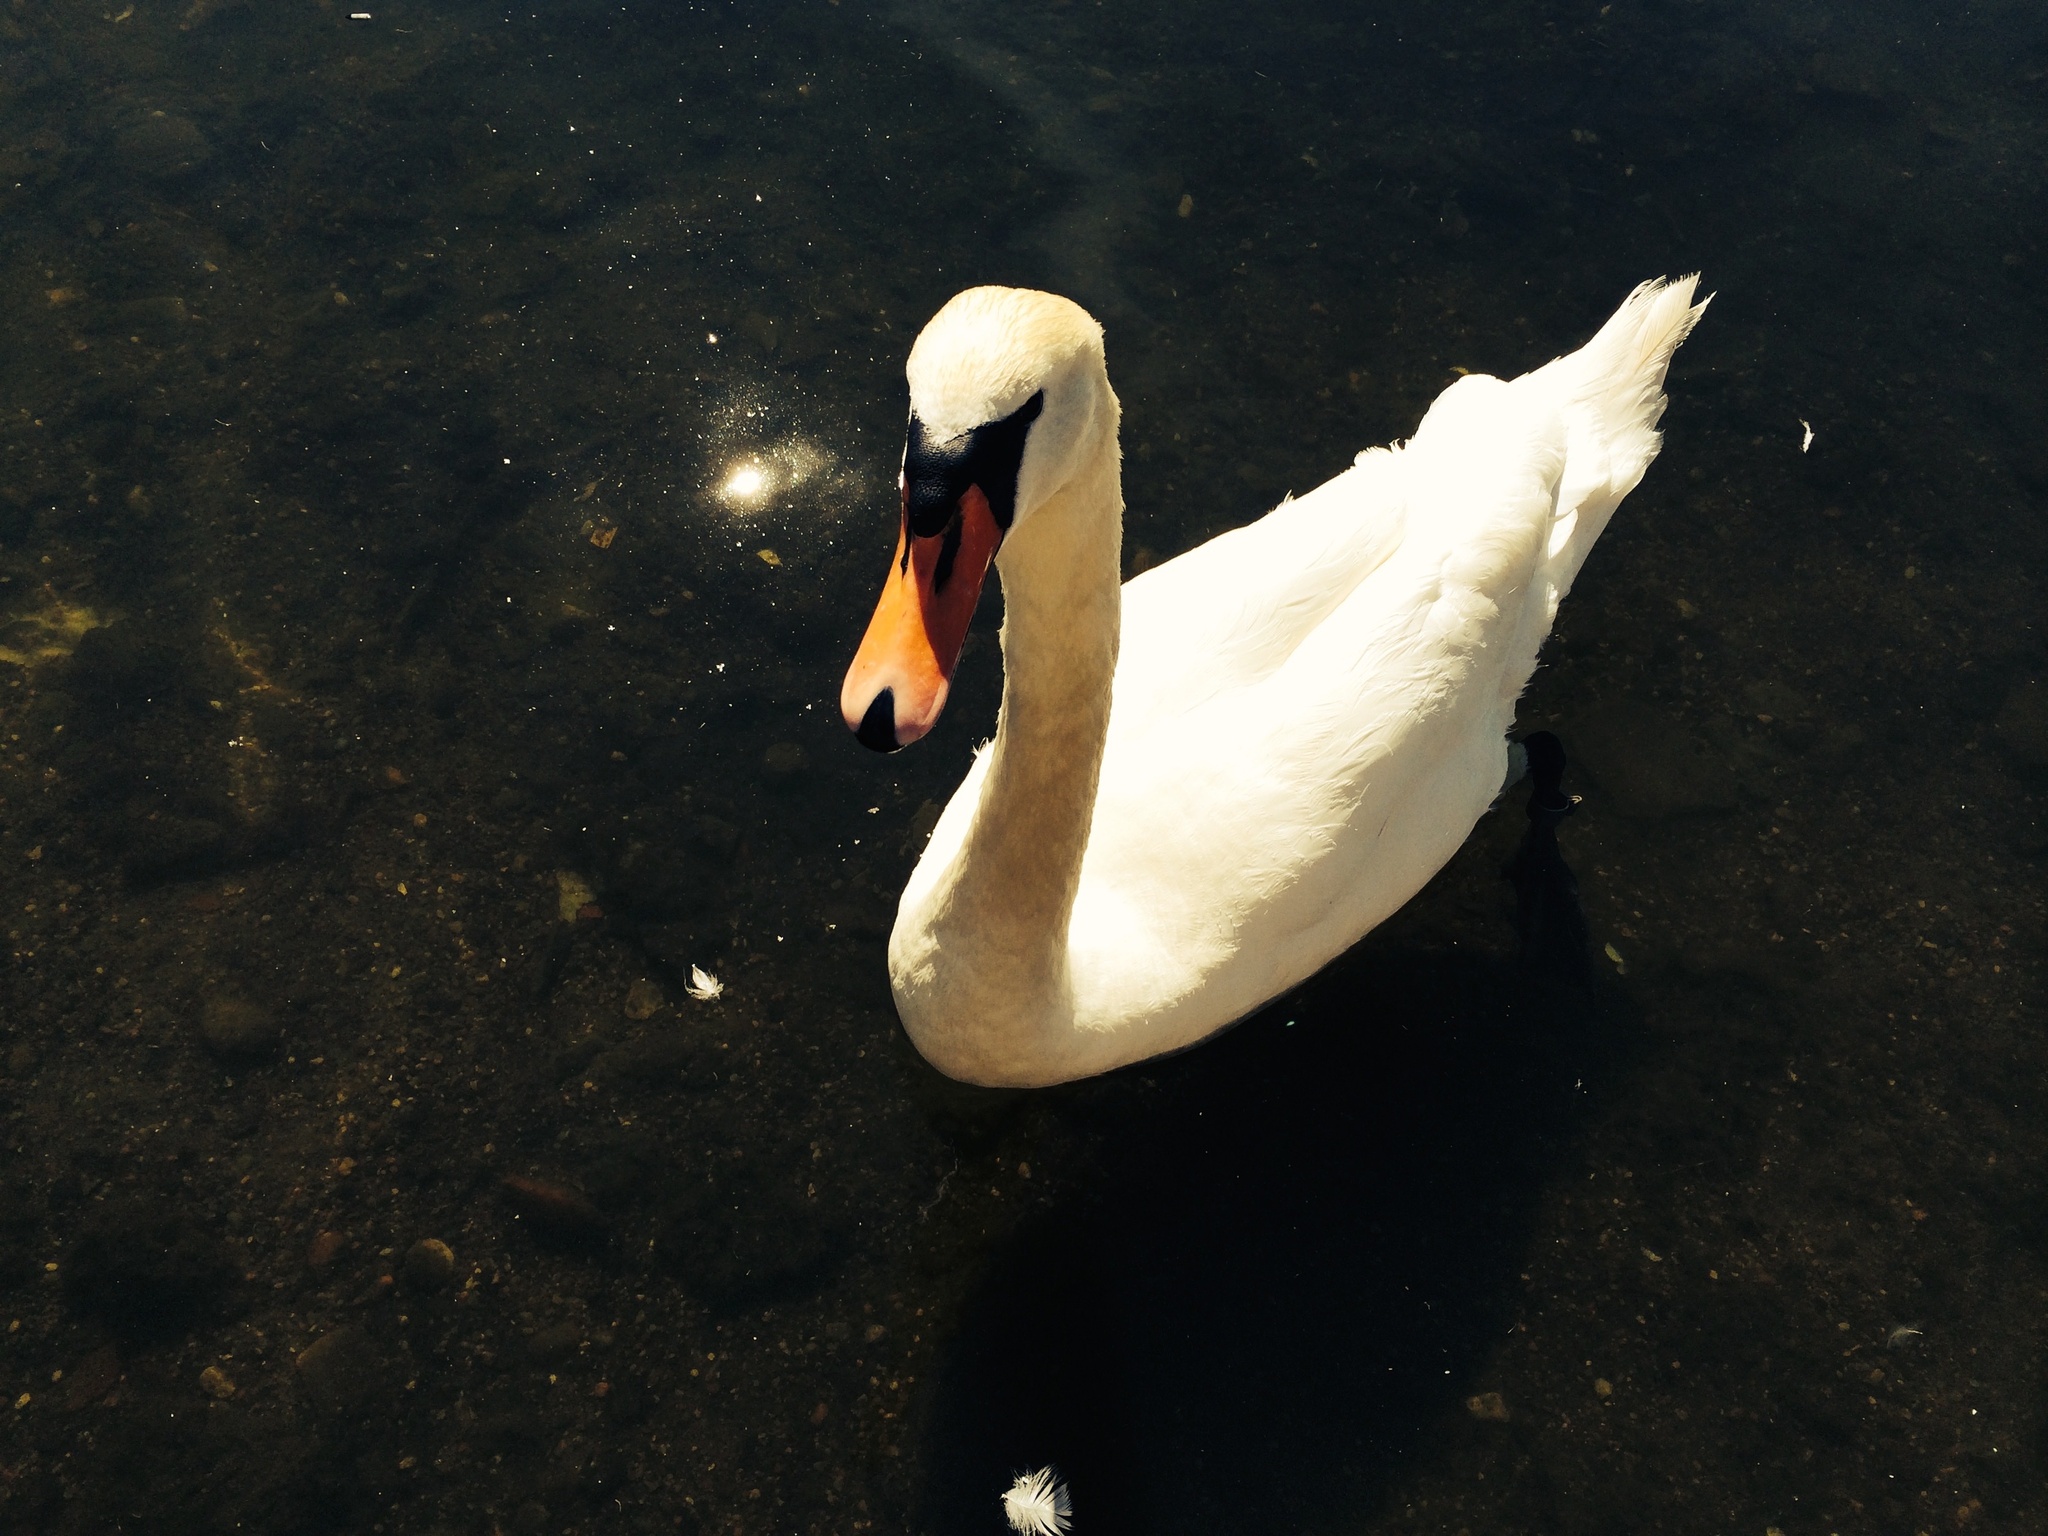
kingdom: Animalia
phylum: Chordata
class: Aves
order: Anseriformes
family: Anatidae
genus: Cygnus
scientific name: Cygnus olor
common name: Mute swan
